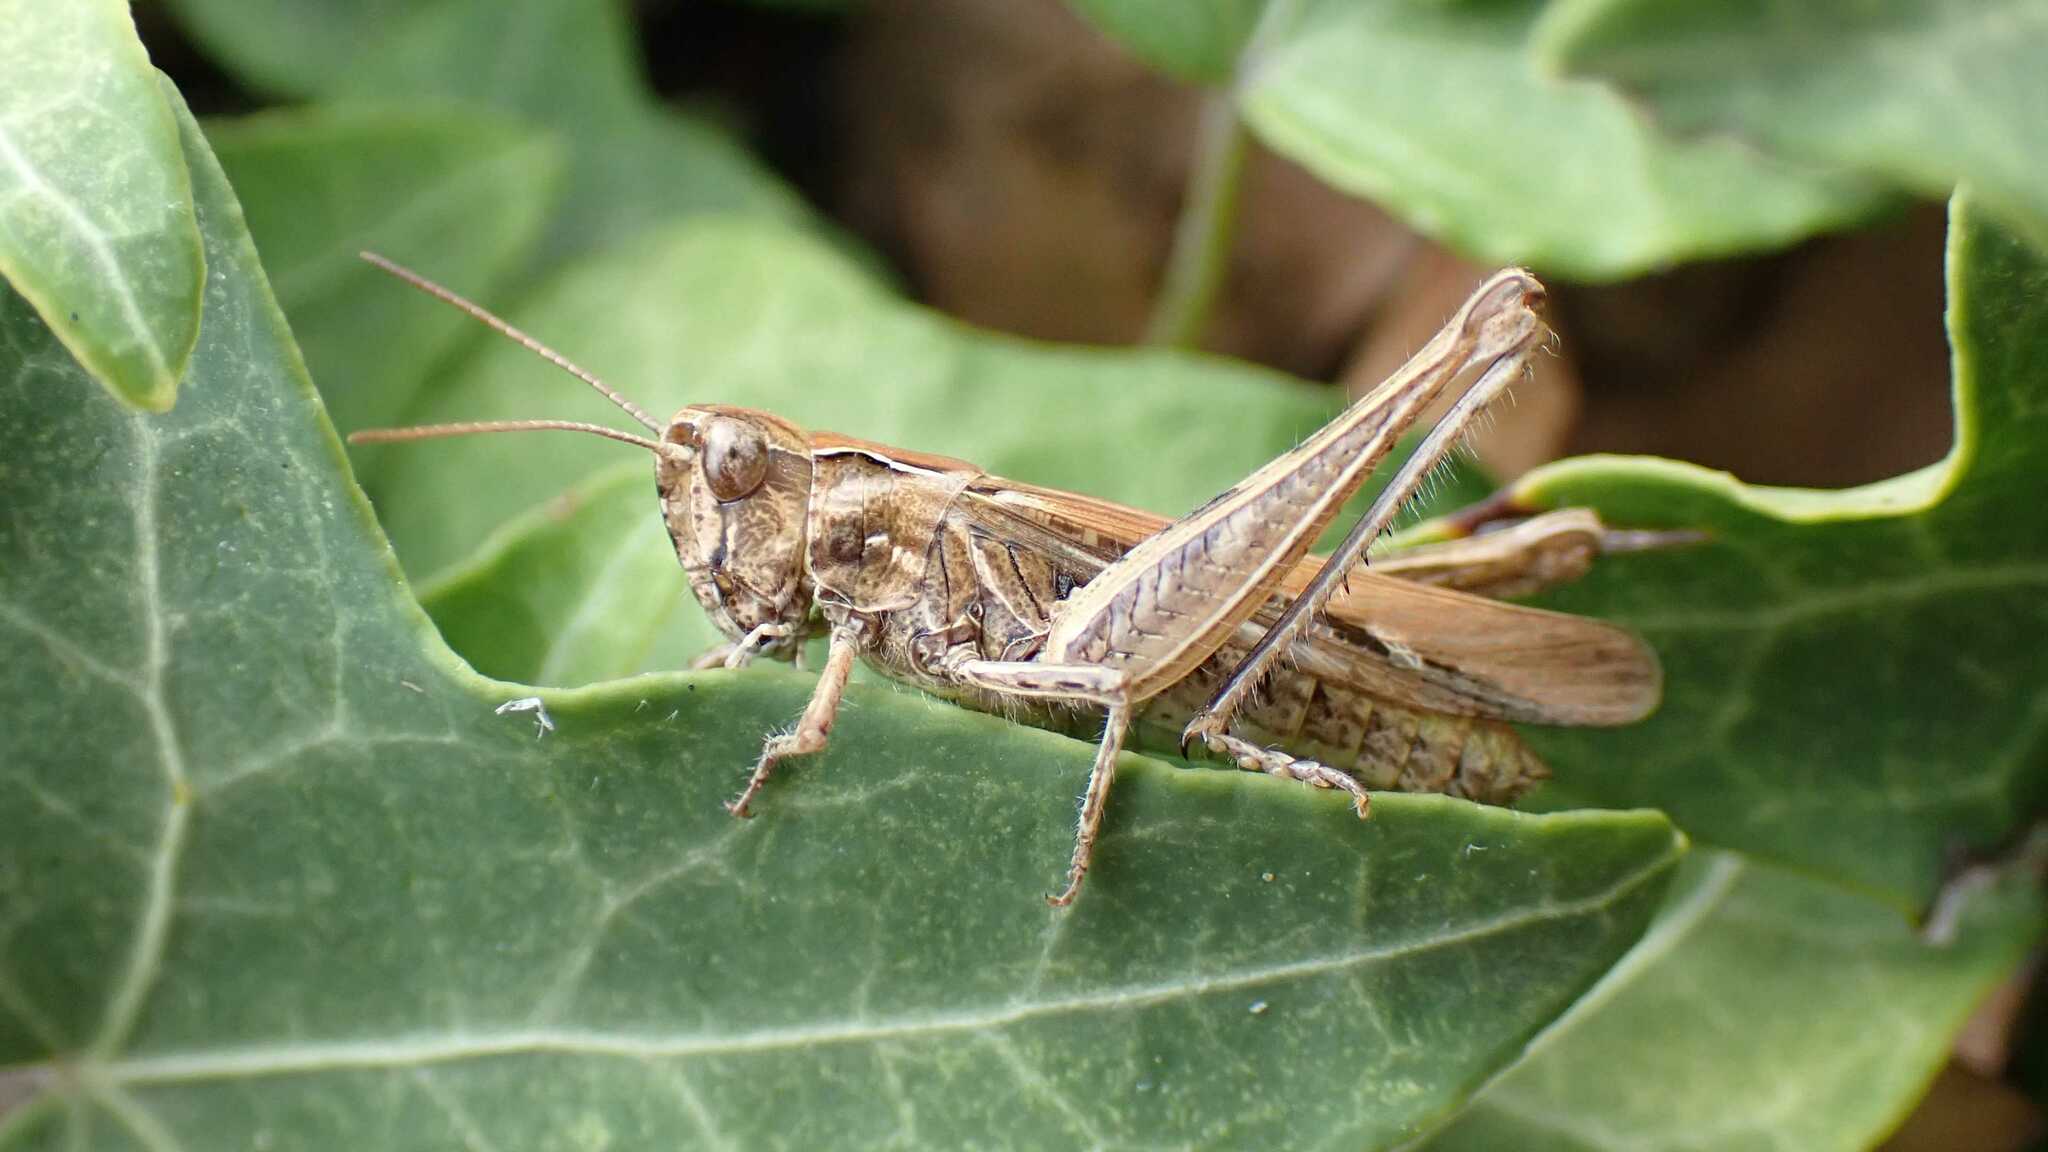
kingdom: Animalia
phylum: Arthropoda
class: Insecta
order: Orthoptera
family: Acrididae
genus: Glyptobothrus
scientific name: Glyptobothrus
